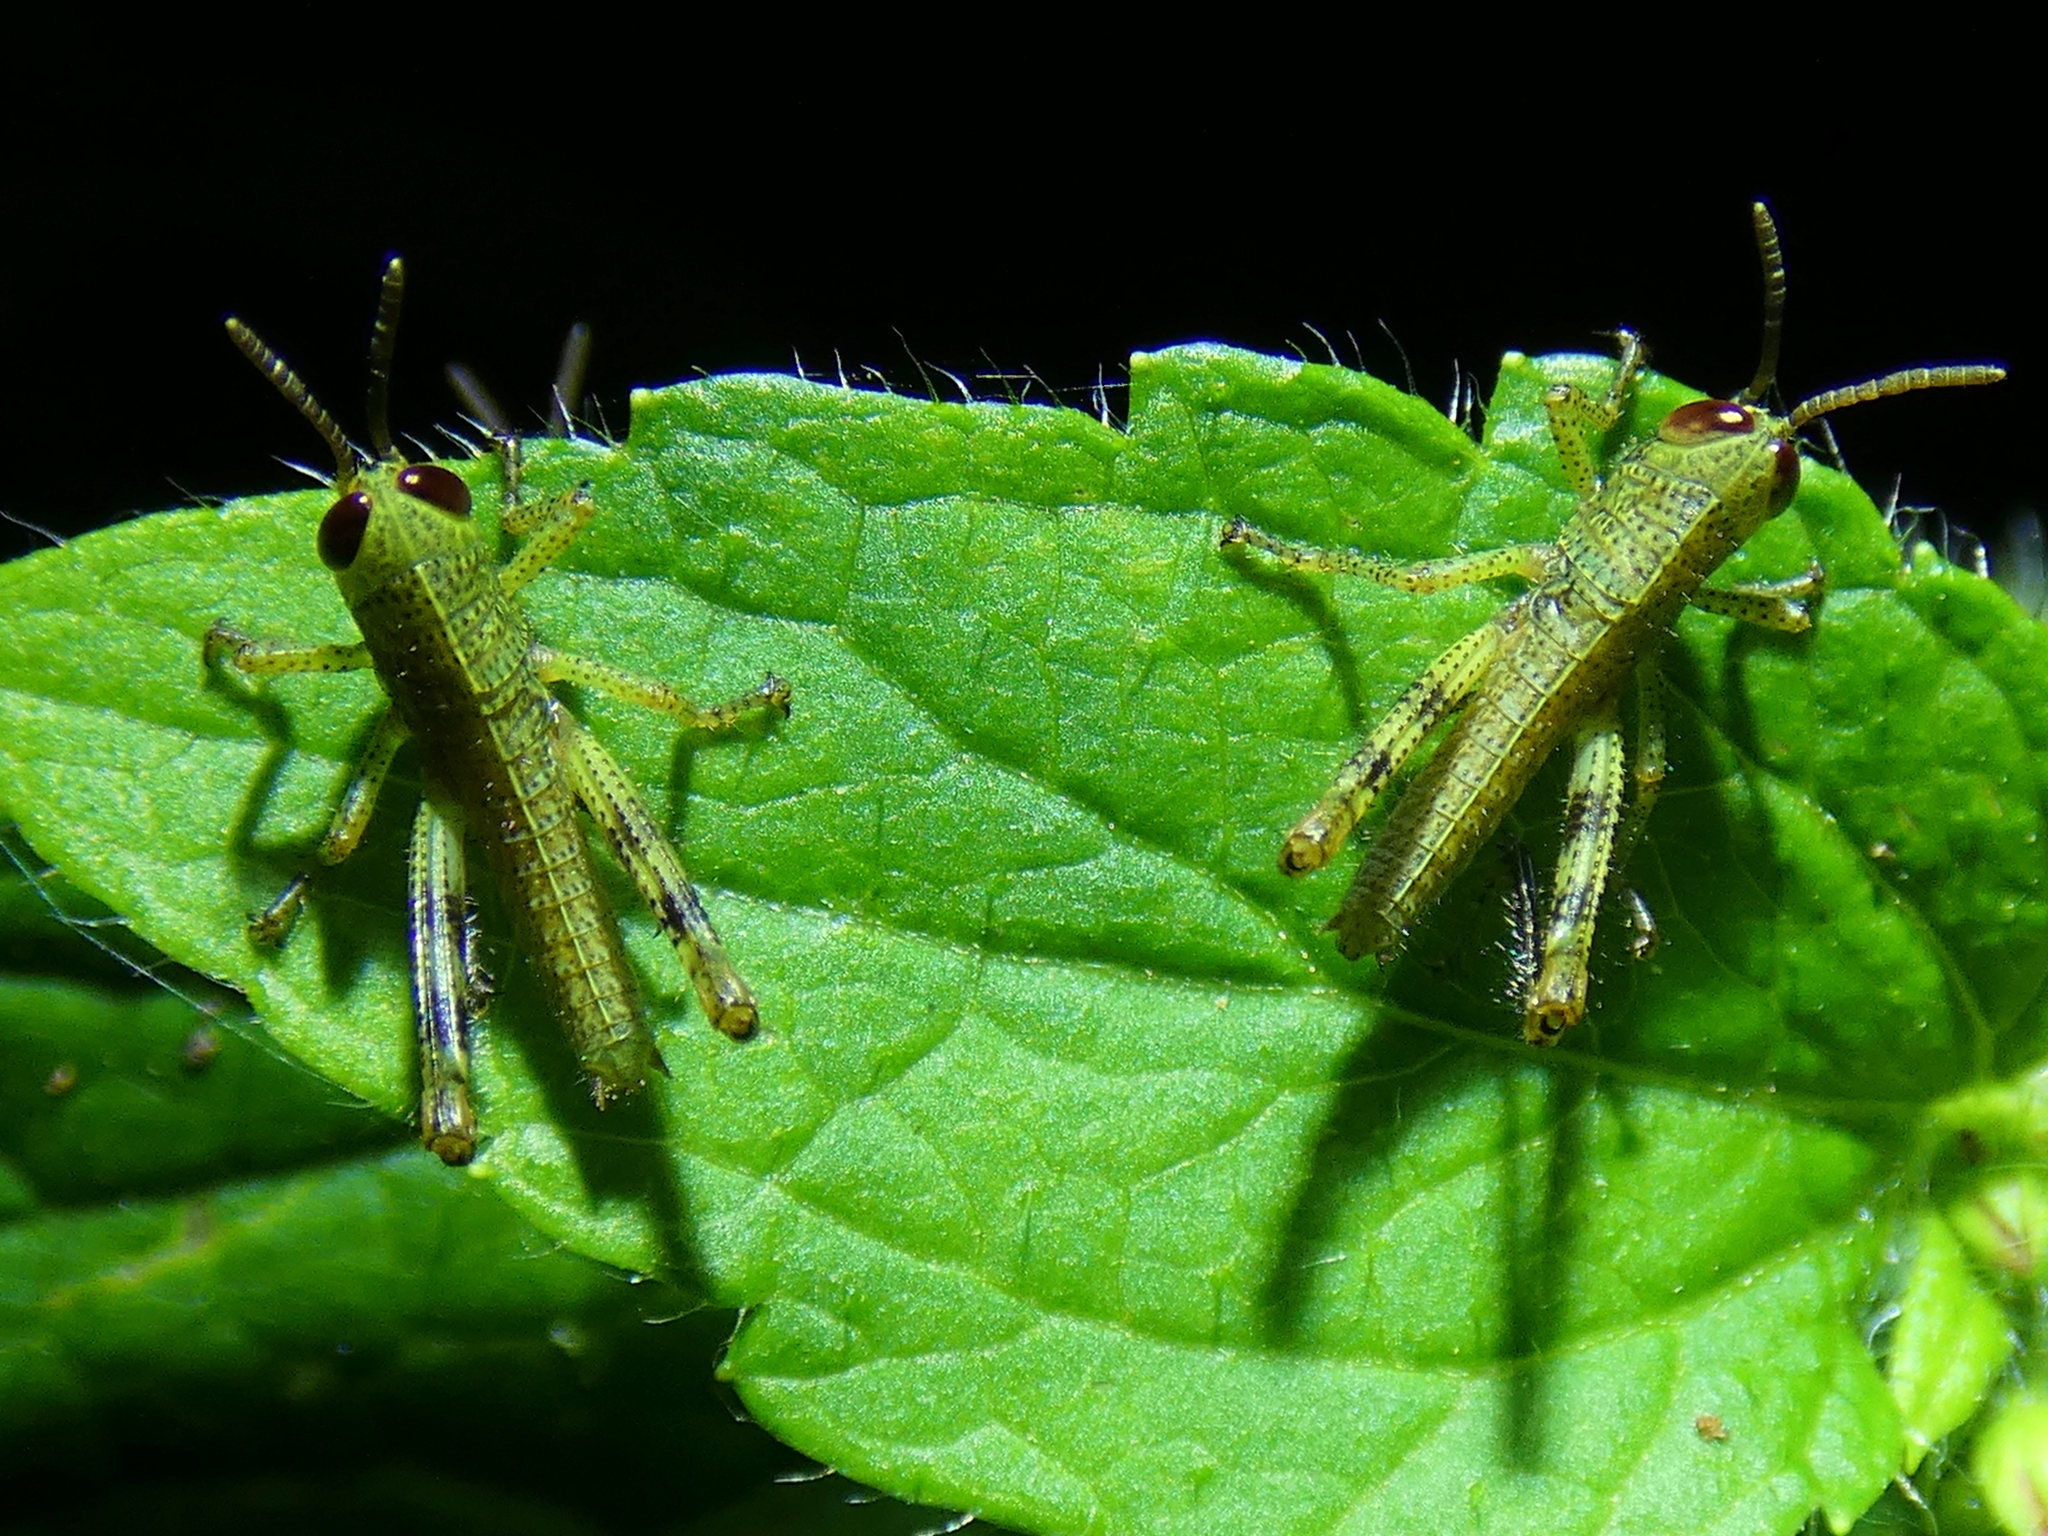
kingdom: Animalia
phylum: Arthropoda
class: Insecta
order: Orthoptera
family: Acrididae
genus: Valanga
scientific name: Valanga irregularis
